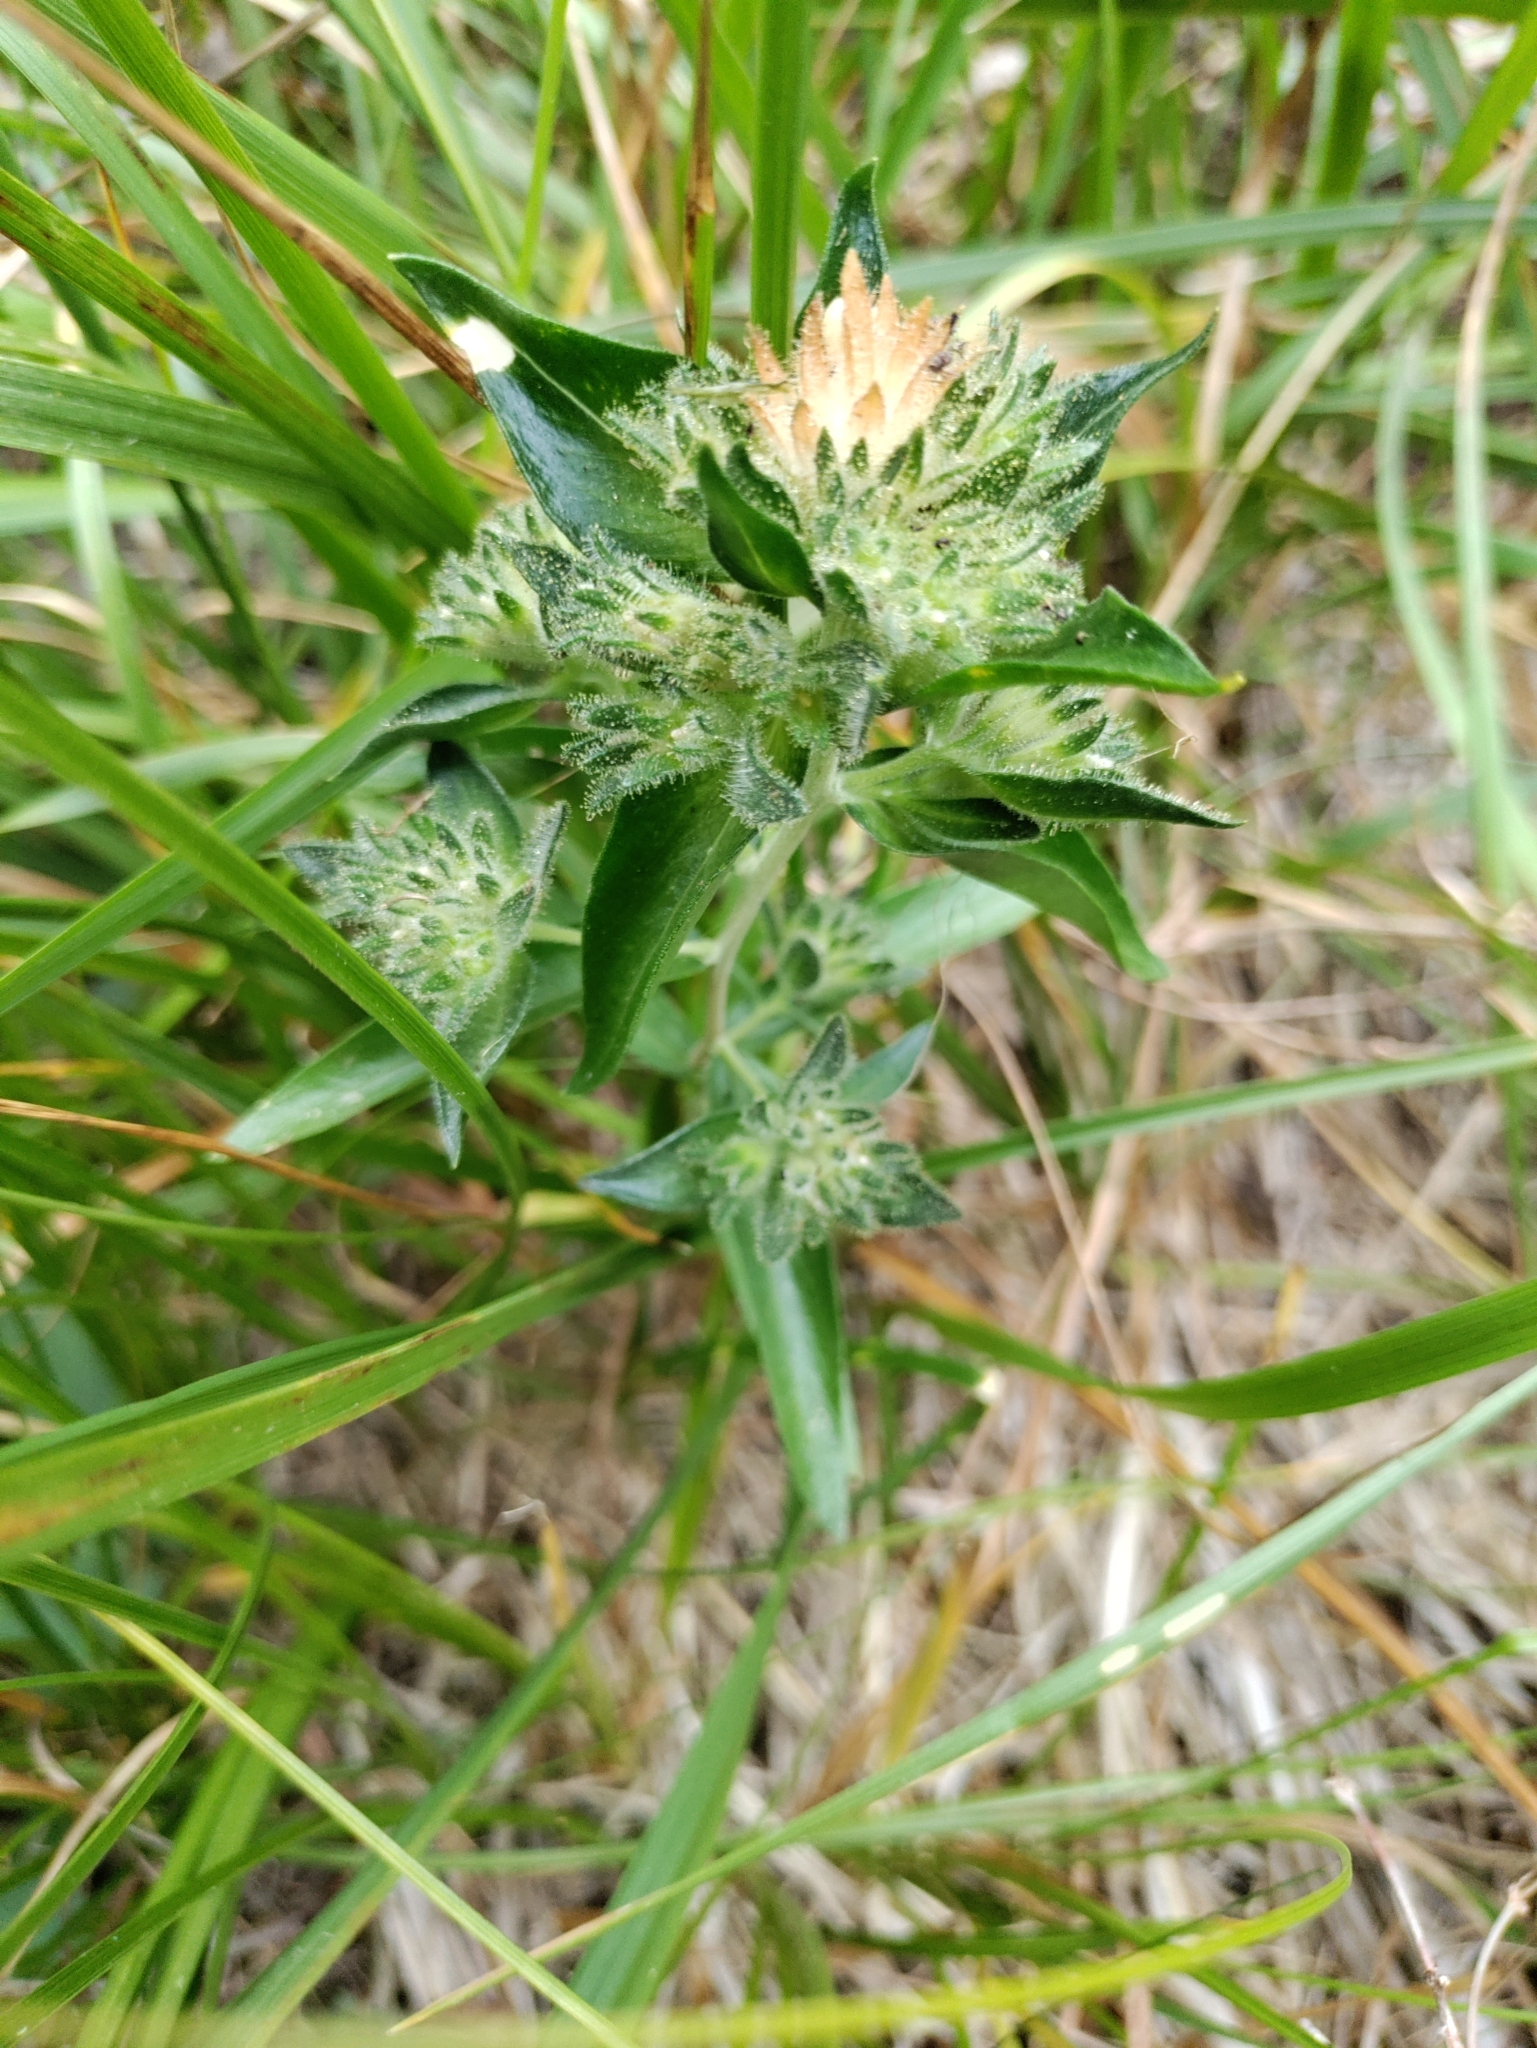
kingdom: Plantae
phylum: Tracheophyta
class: Magnoliopsida
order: Ericales
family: Polemoniaceae
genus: Collomia
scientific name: Collomia grandiflora
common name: California strawflower
